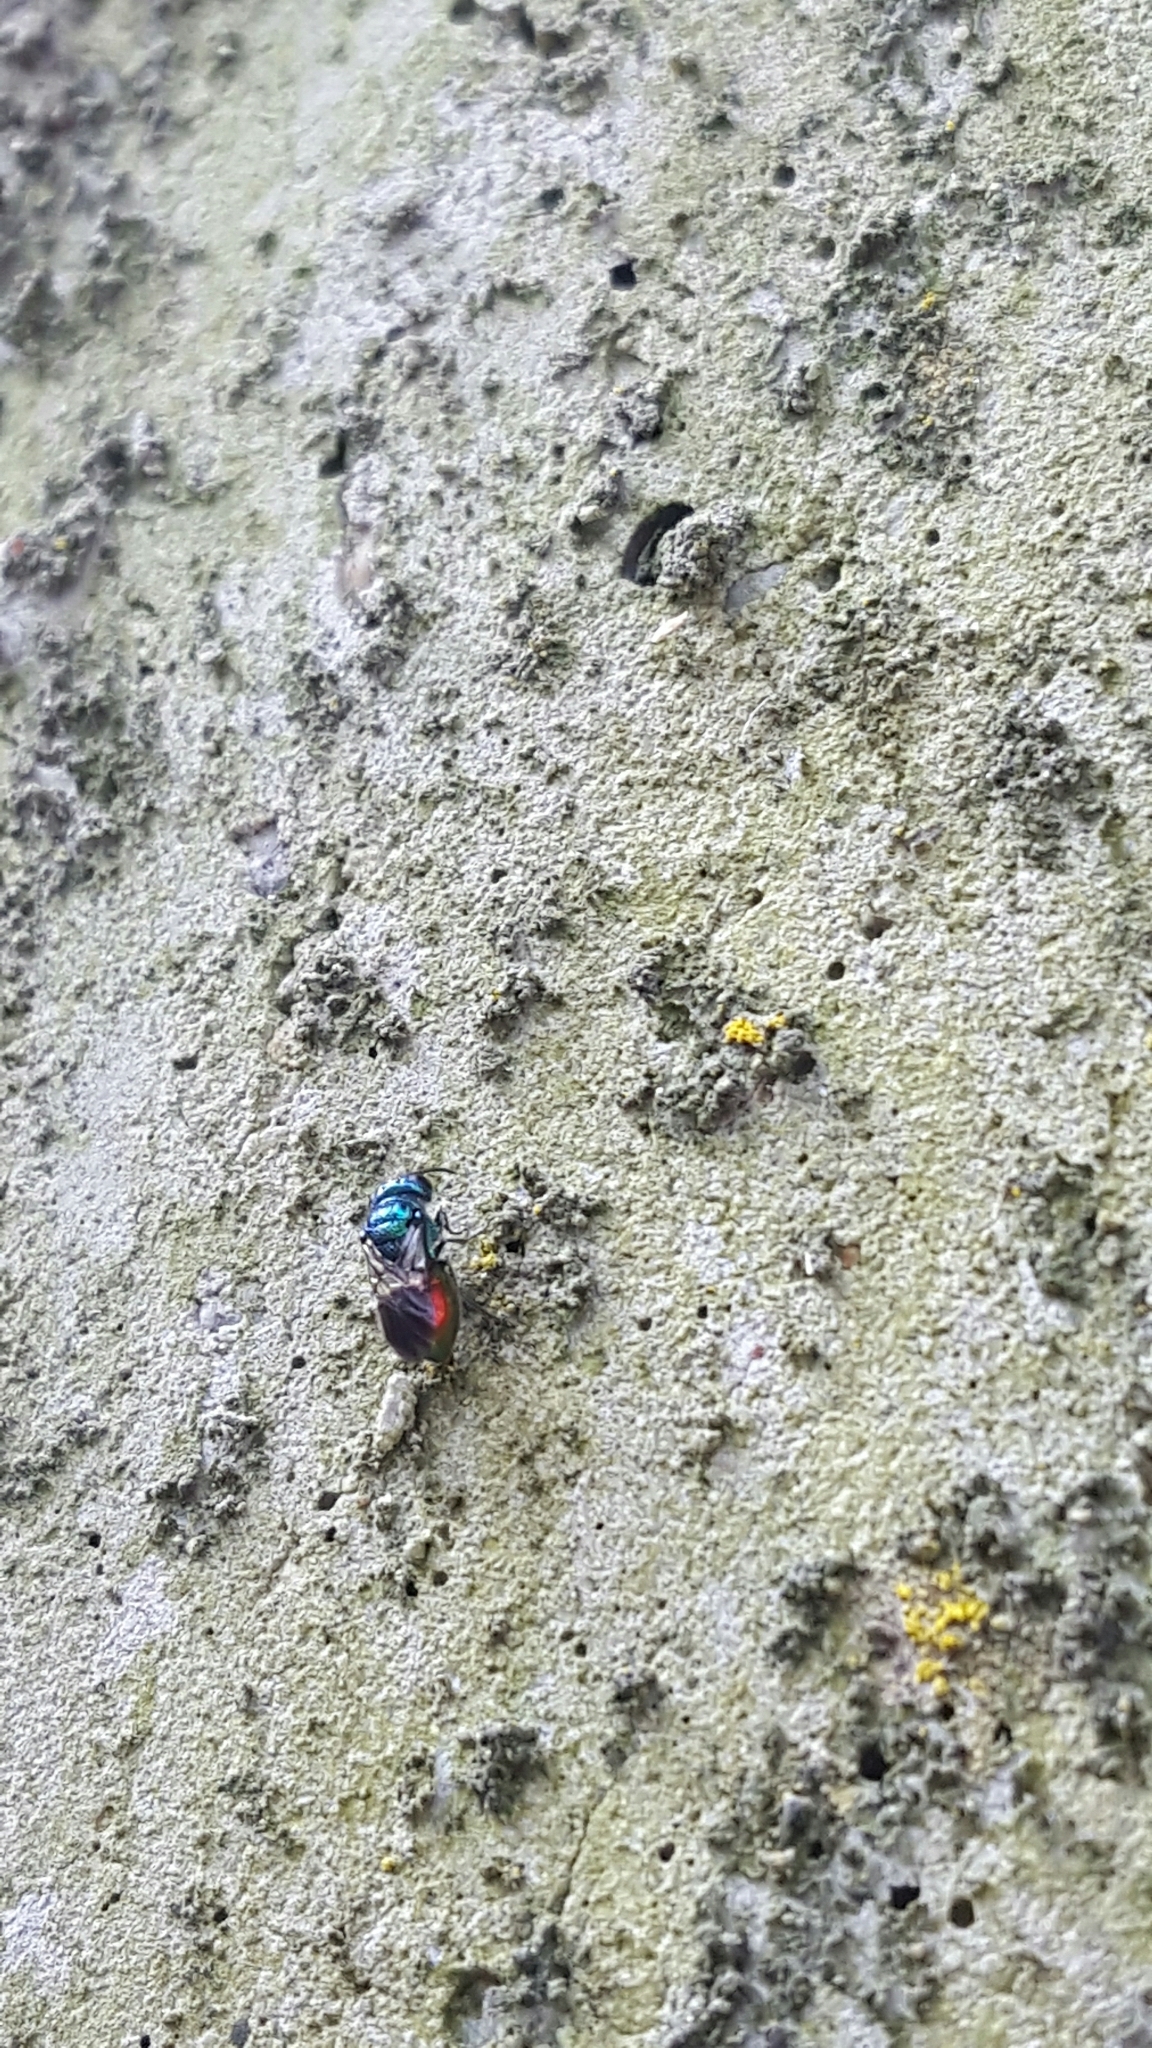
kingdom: Animalia
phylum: Arthropoda
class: Insecta
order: Hymenoptera
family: Chrysididae
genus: Pseudomalus
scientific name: Pseudomalus auratus
